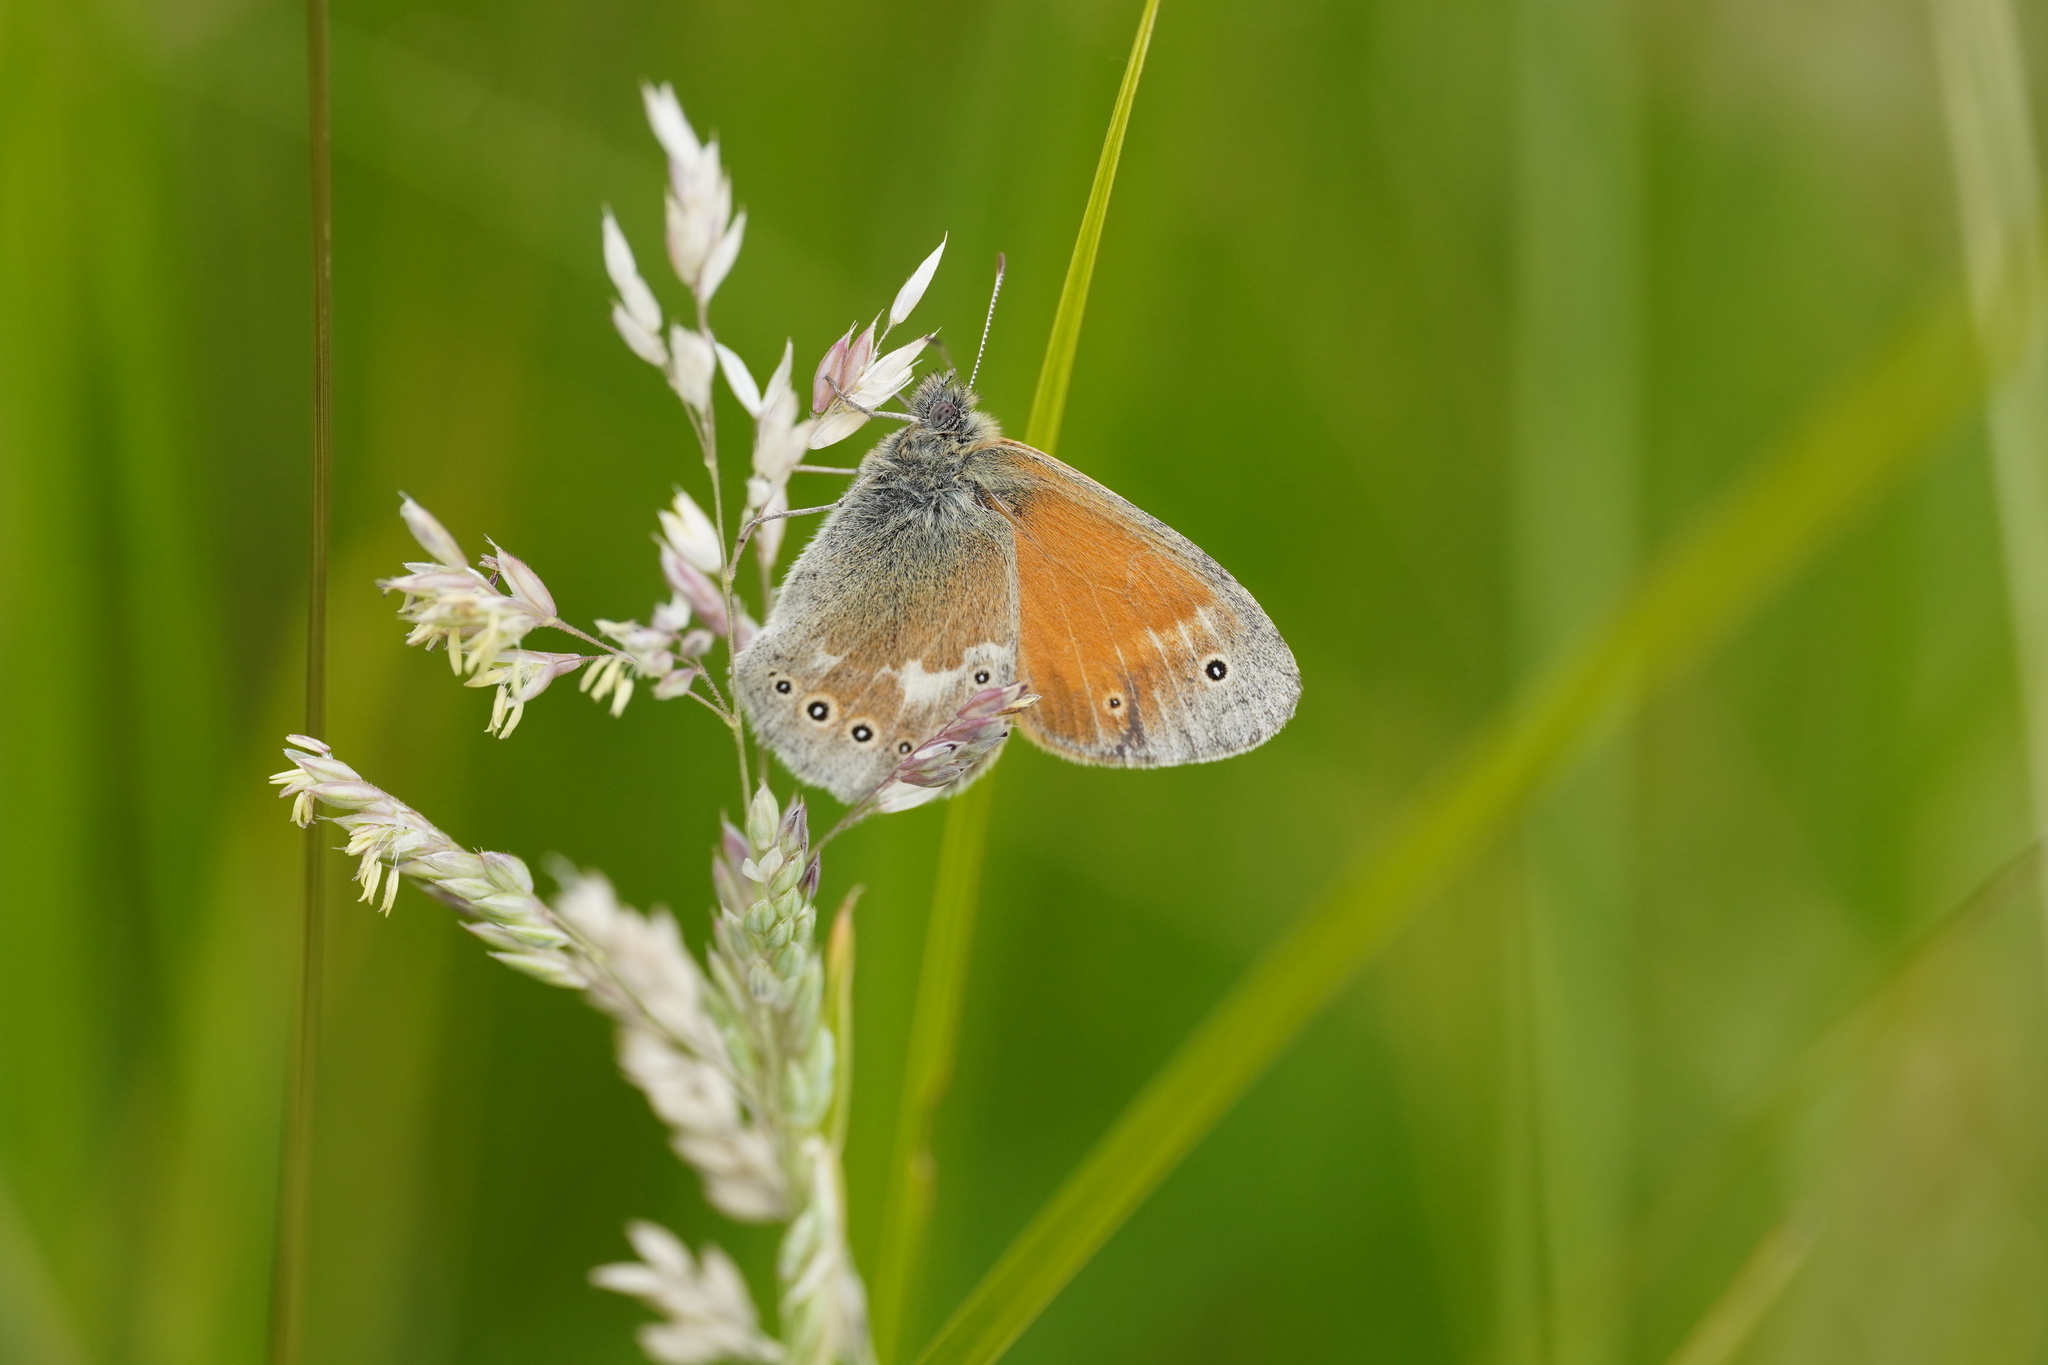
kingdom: Animalia
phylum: Arthropoda
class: Insecta
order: Lepidoptera
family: Nymphalidae
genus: Coenonympha
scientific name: Coenonympha tullia
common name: Large heath
